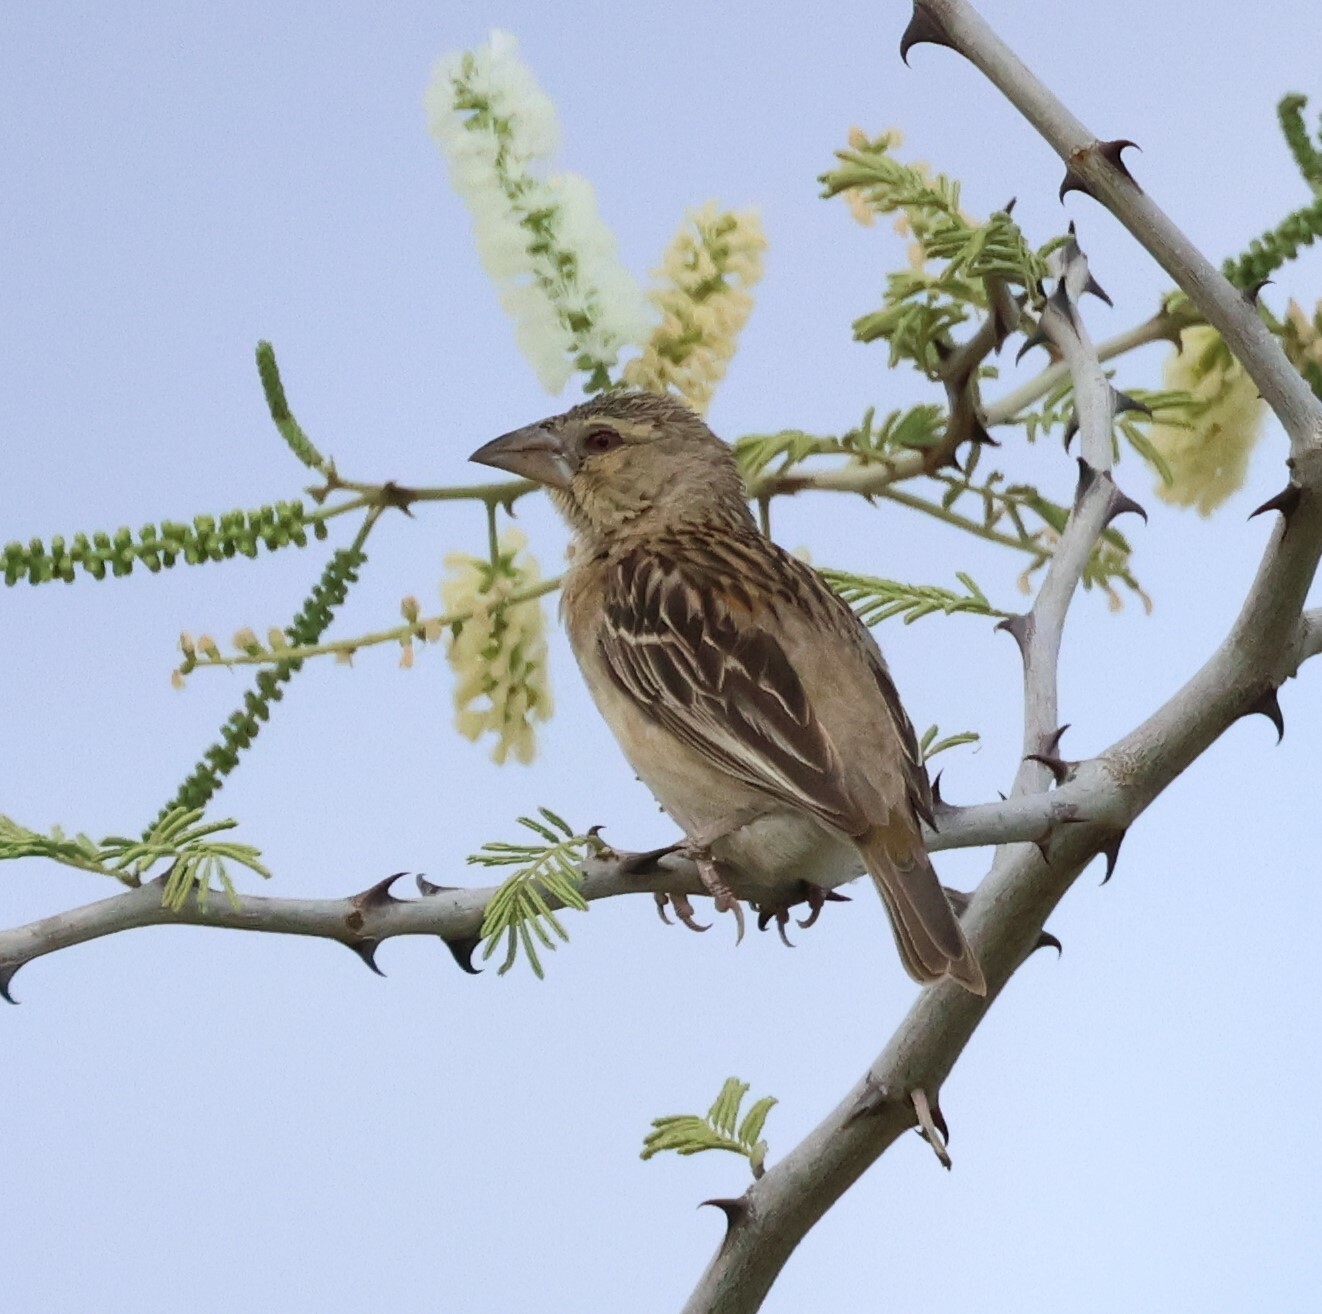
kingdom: Animalia
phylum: Chordata
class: Aves
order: Passeriformes
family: Ploceidae
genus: Ploceus
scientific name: Ploceus rubiginosus
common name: Chestnut weaver
